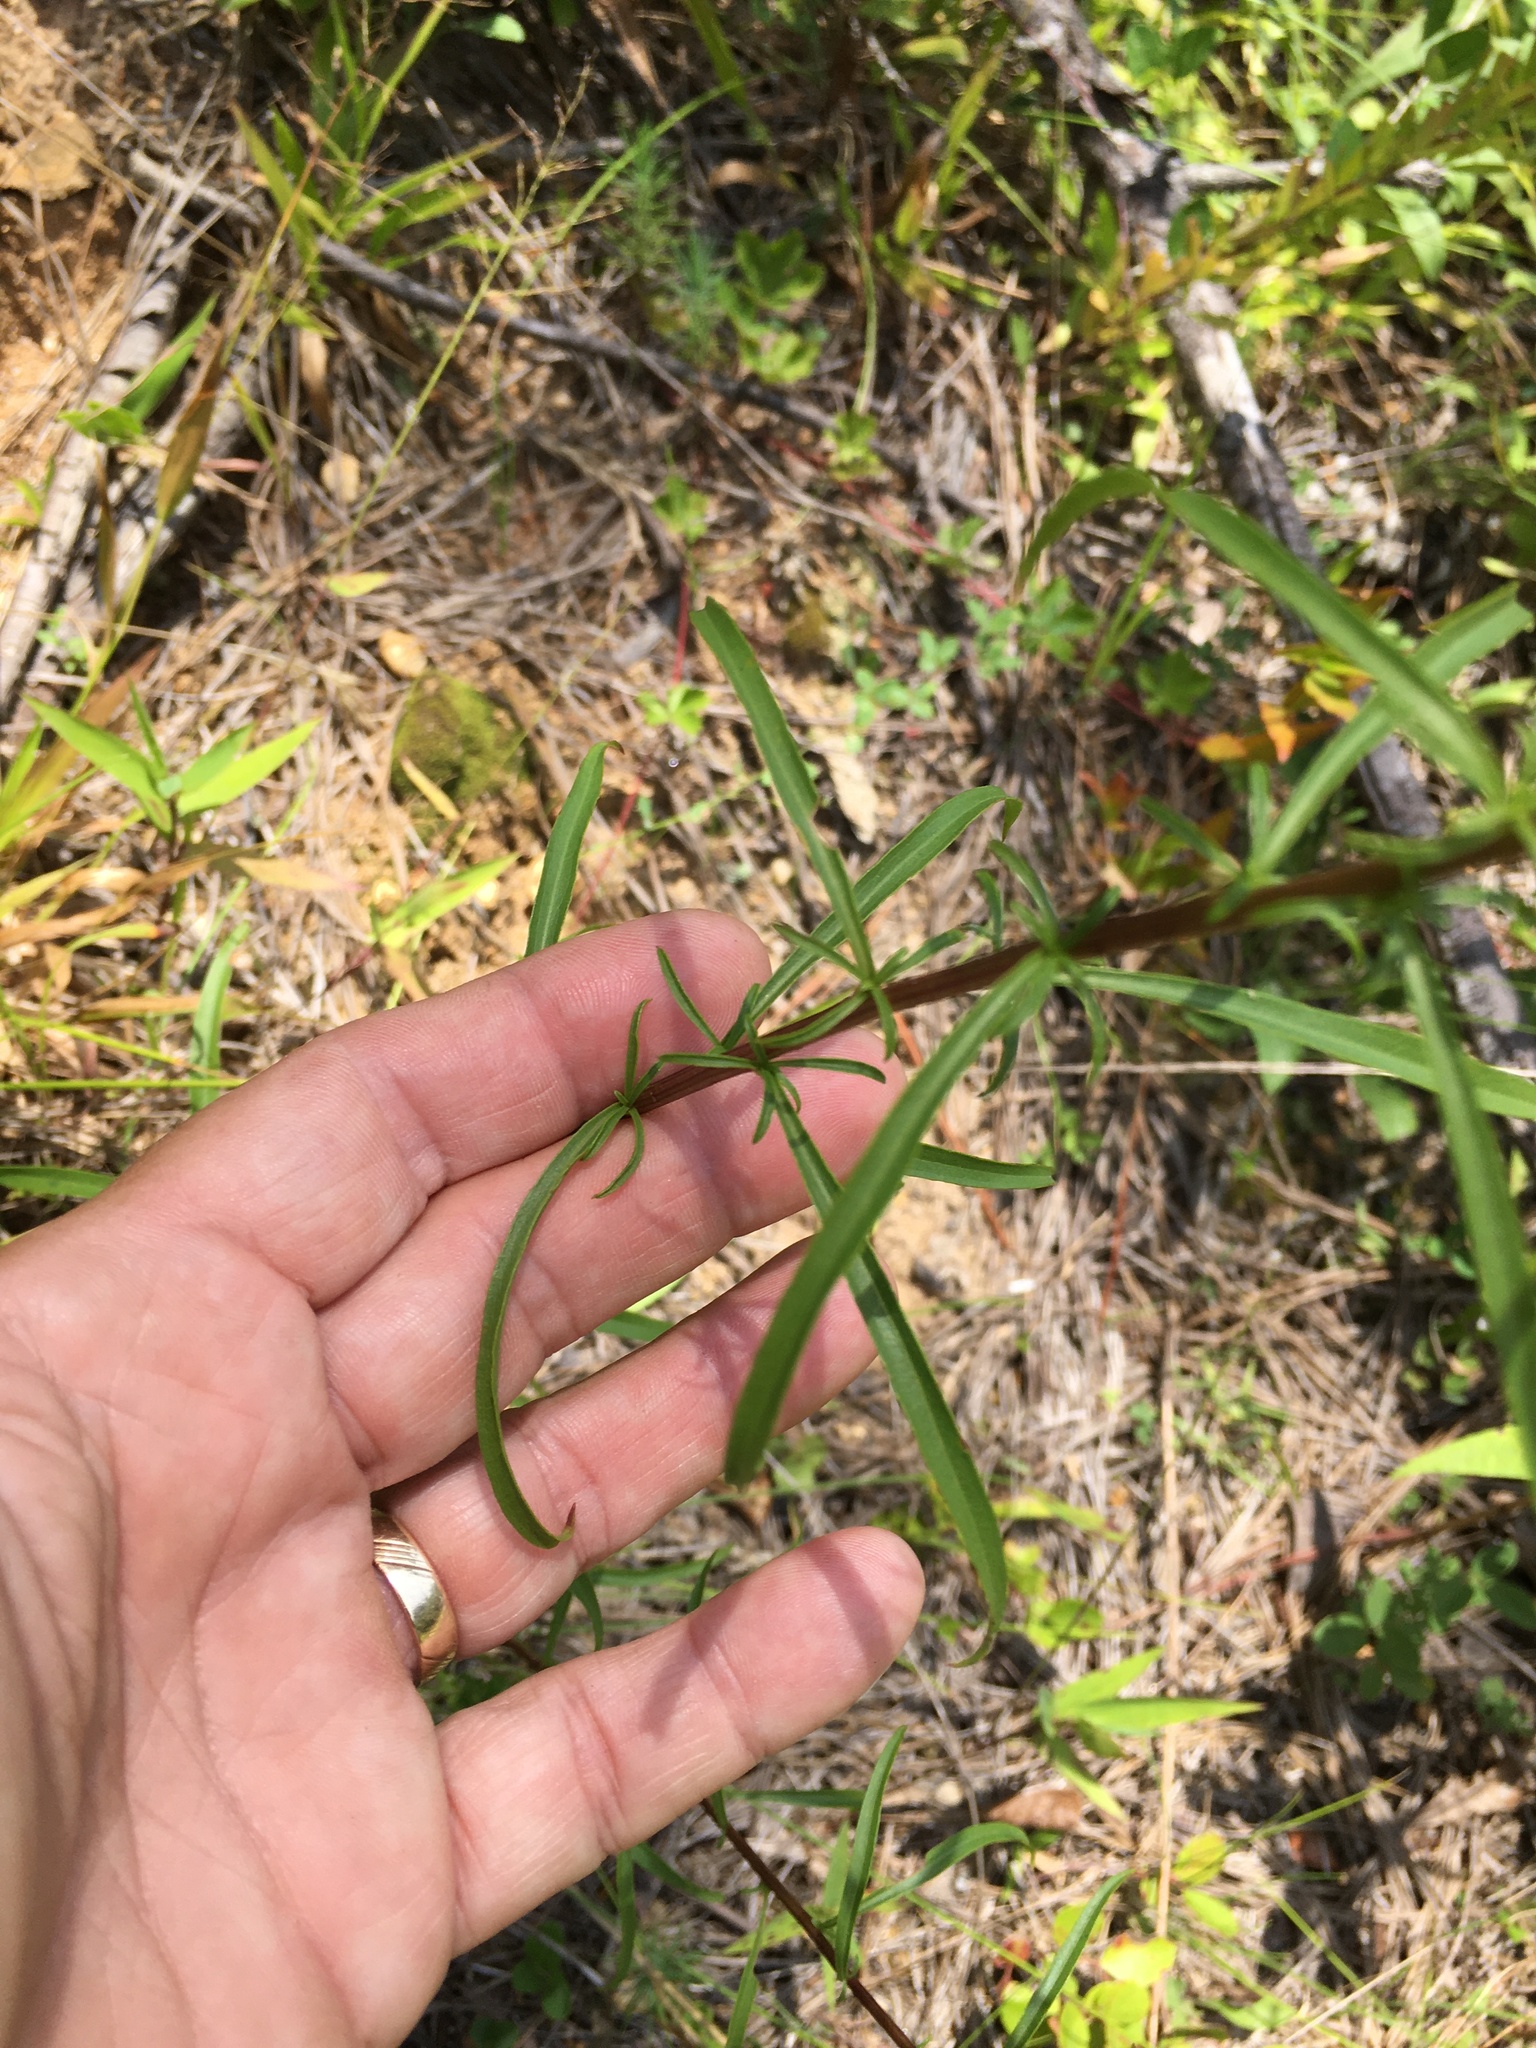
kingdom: Plantae
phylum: Tracheophyta
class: Magnoliopsida
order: Asterales
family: Asteraceae
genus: Solidago
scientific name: Solidago pinetorum
